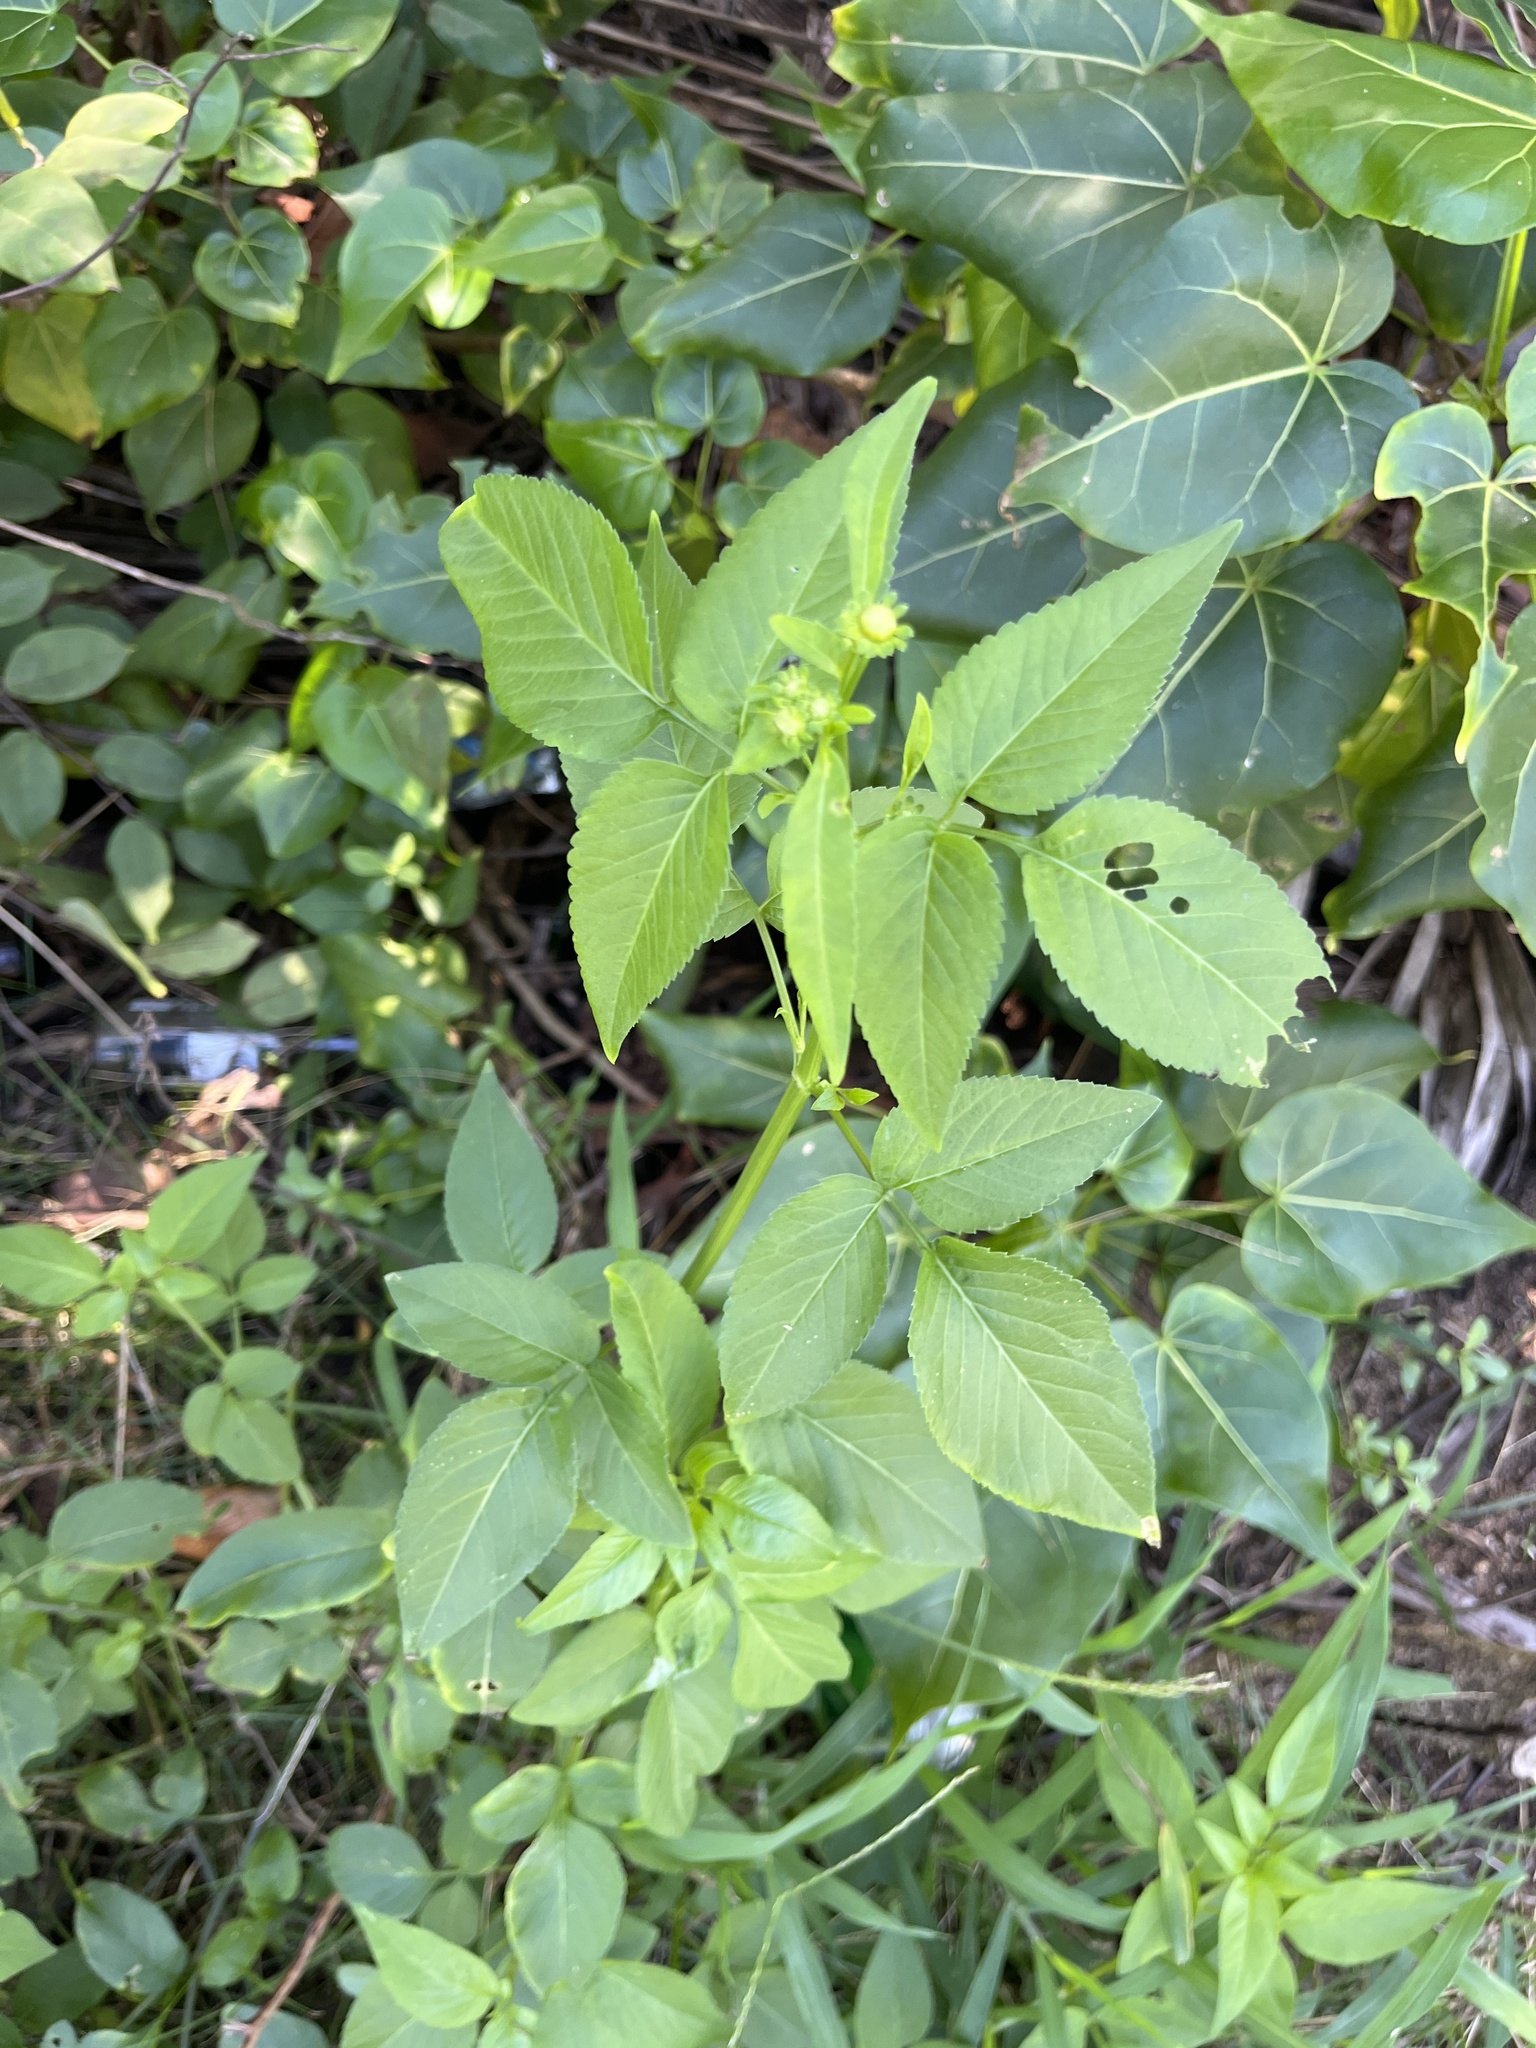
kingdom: Plantae
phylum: Tracheophyta
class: Magnoliopsida
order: Asterales
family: Asteraceae
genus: Bidens
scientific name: Bidens alba
